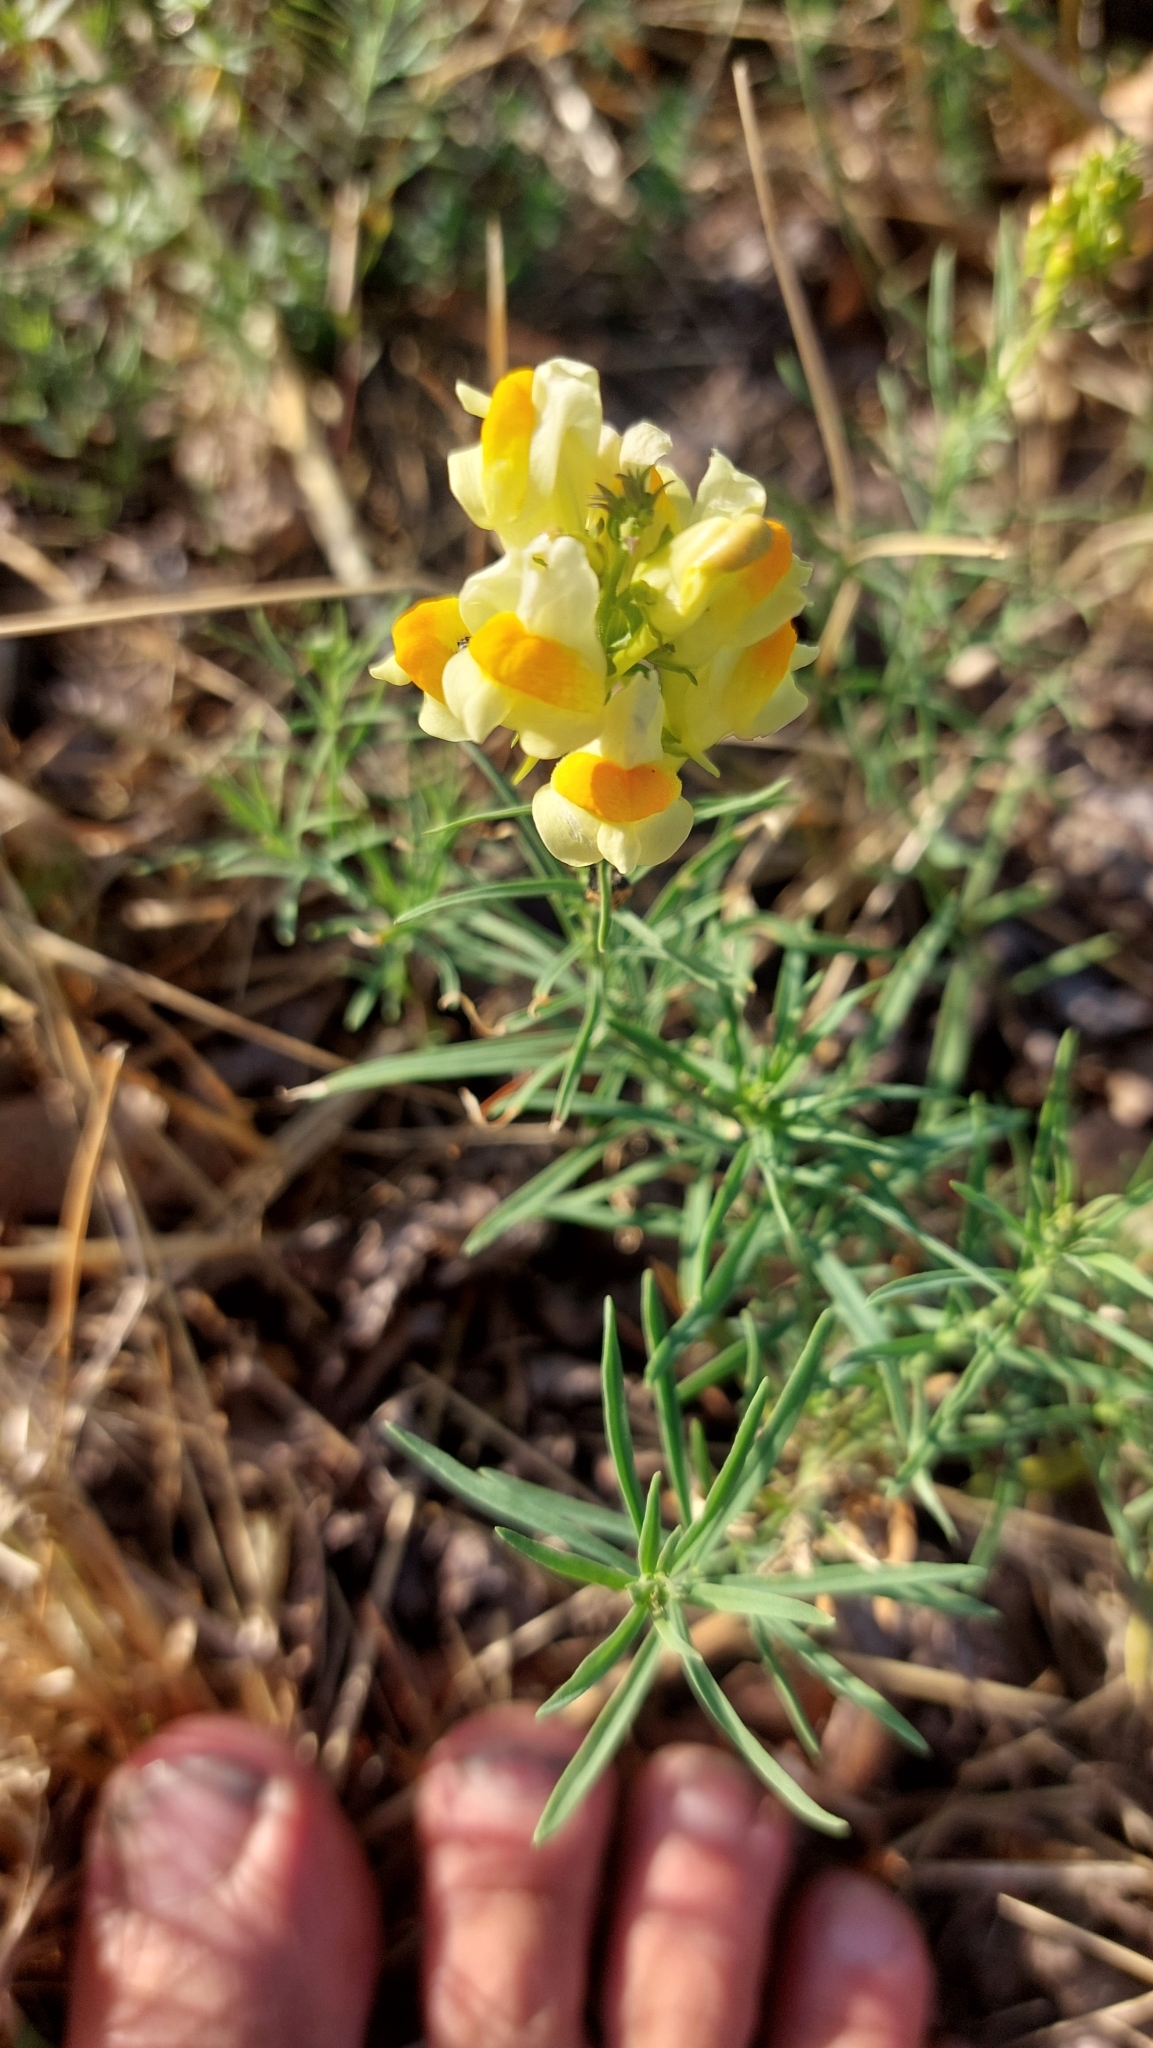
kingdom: Plantae
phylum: Tracheophyta
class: Magnoliopsida
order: Lamiales
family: Plantaginaceae
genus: Linaria
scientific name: Linaria vulgaris
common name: Butter and eggs
